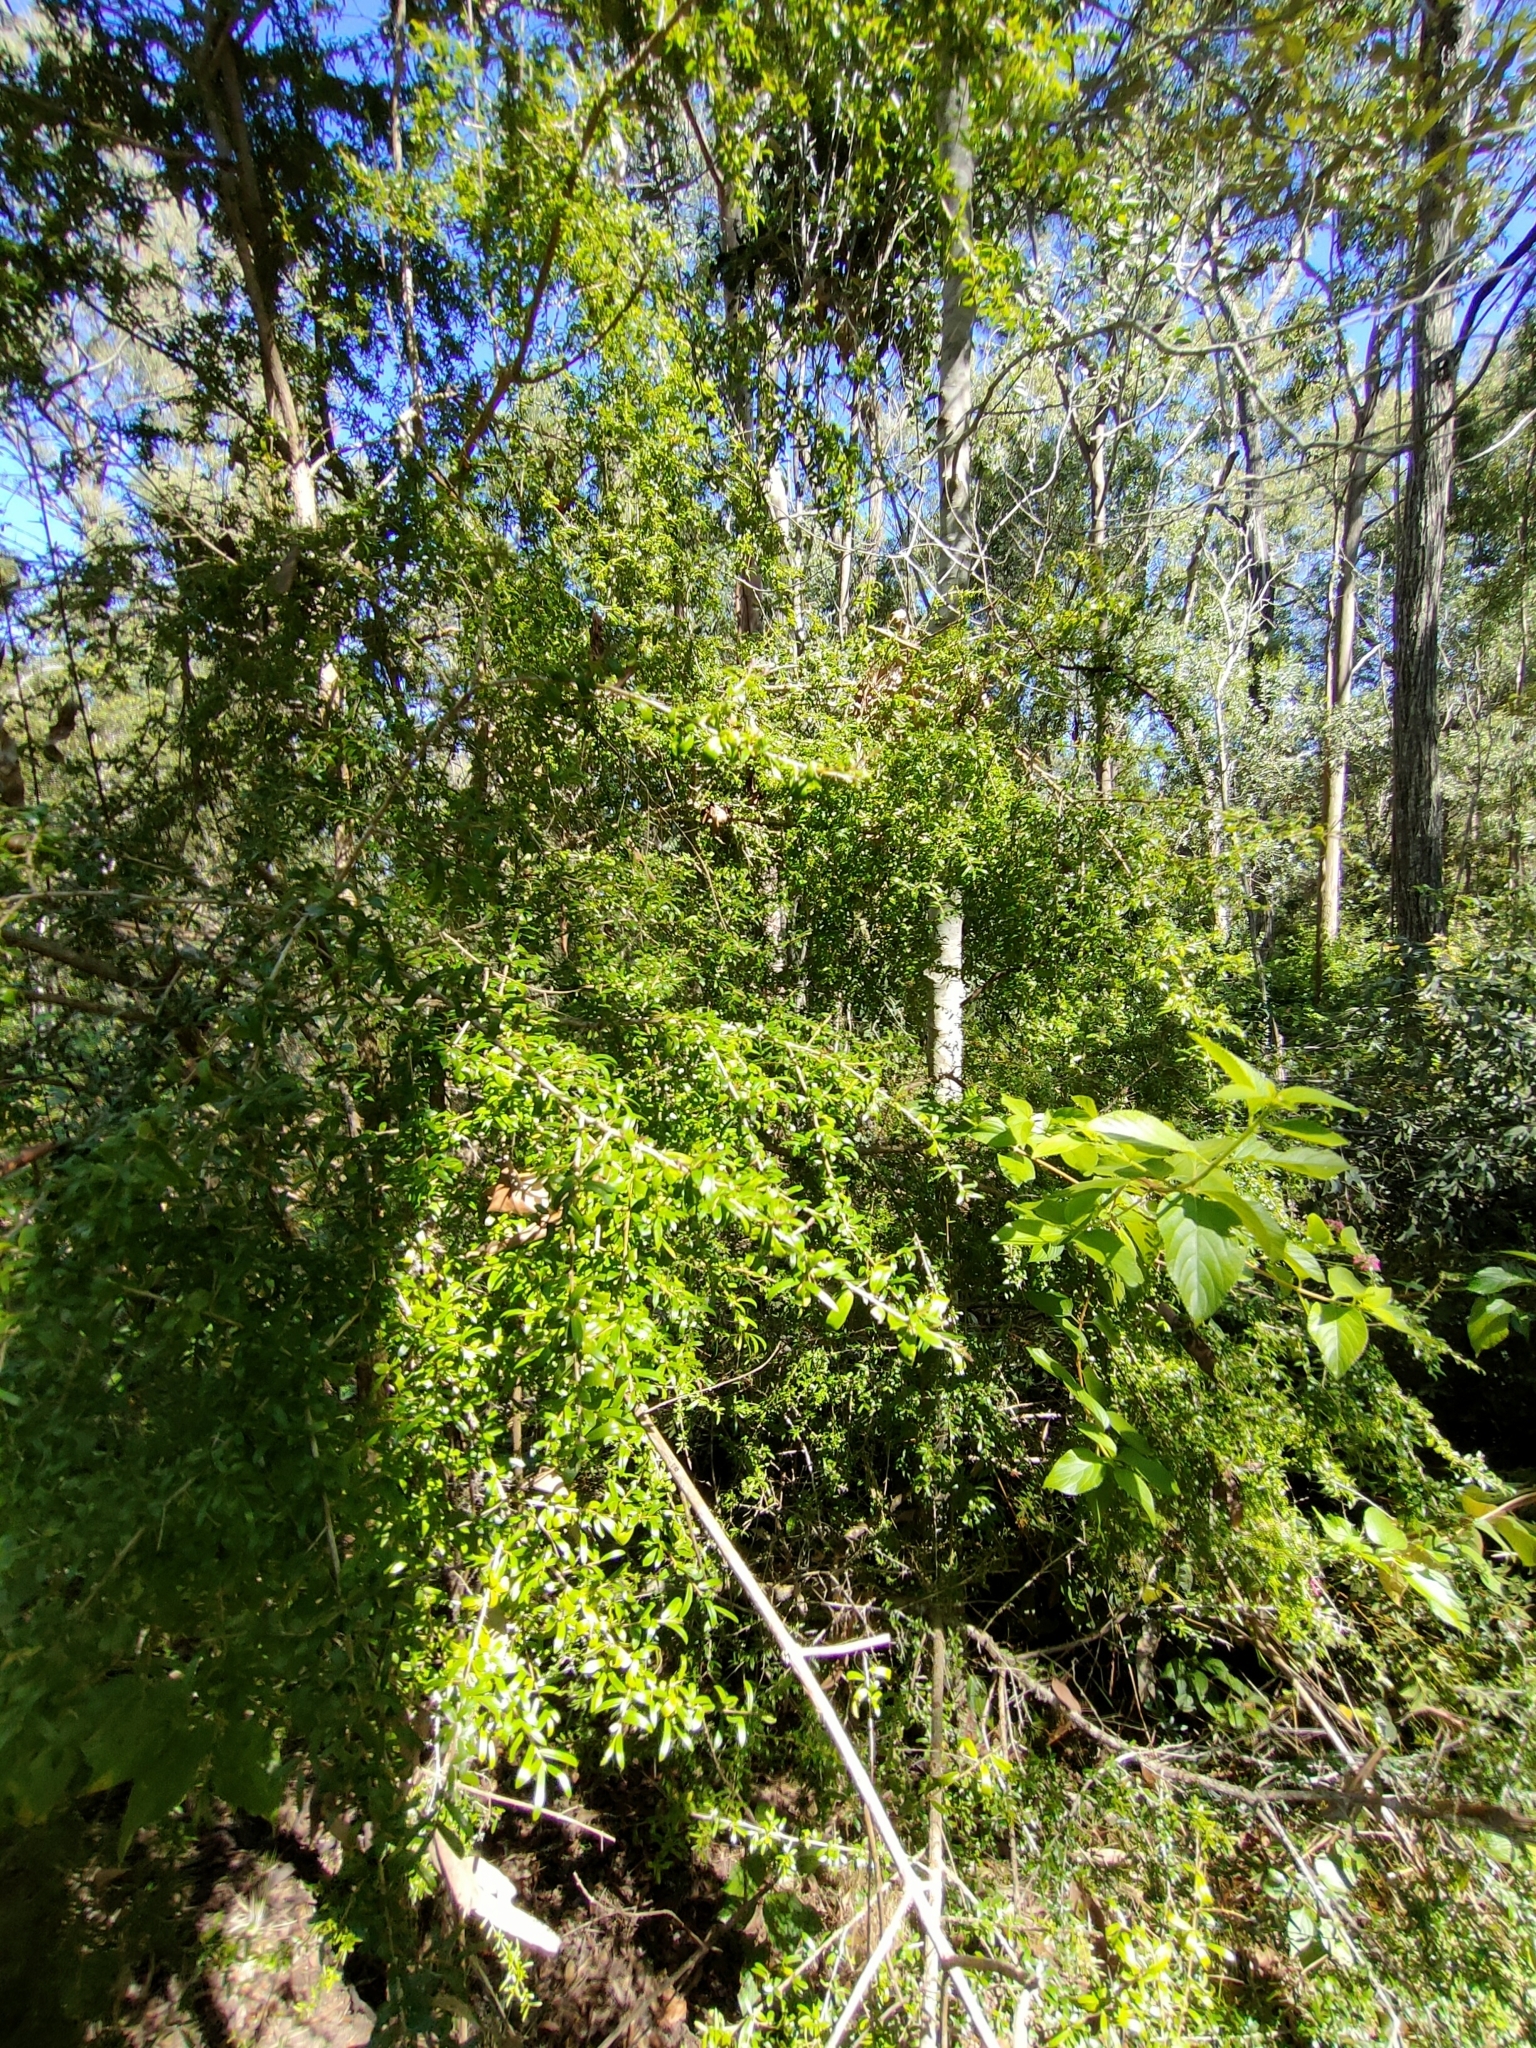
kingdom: Plantae
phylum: Tracheophyta
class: Magnoliopsida
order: Apiales
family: Pittosporaceae
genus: Pittosporum
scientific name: Pittosporum viscidum
